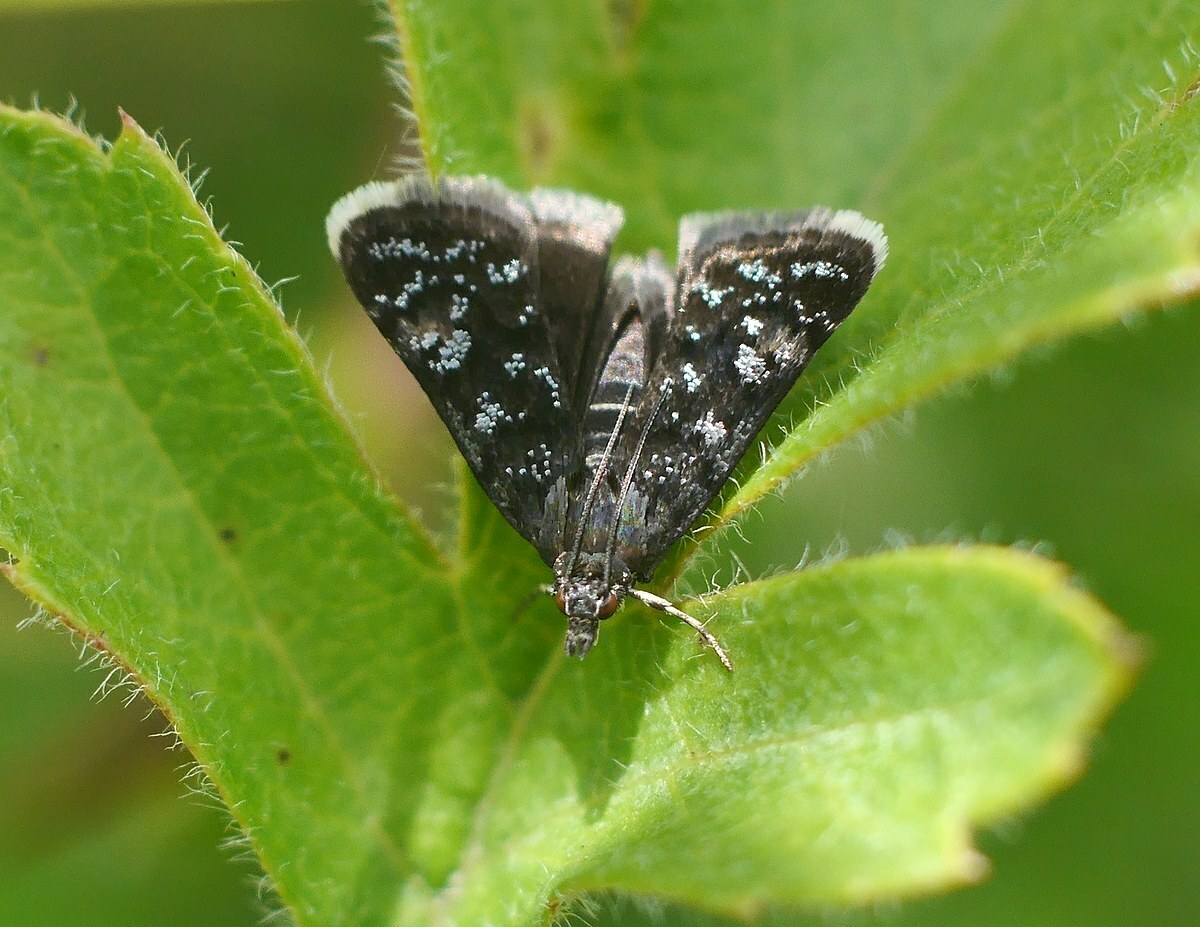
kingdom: Animalia
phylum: Arthropoda
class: Insecta
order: Lepidoptera
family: Crambidae
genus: Heliothela
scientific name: Heliothela wulfeniana
